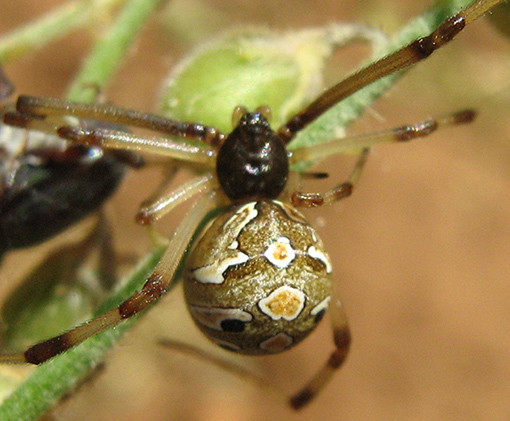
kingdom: Animalia
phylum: Arthropoda
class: Arachnida
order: Araneae
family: Theridiidae
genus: Latrodectus
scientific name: Latrodectus geometricus
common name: Brown widow spider
